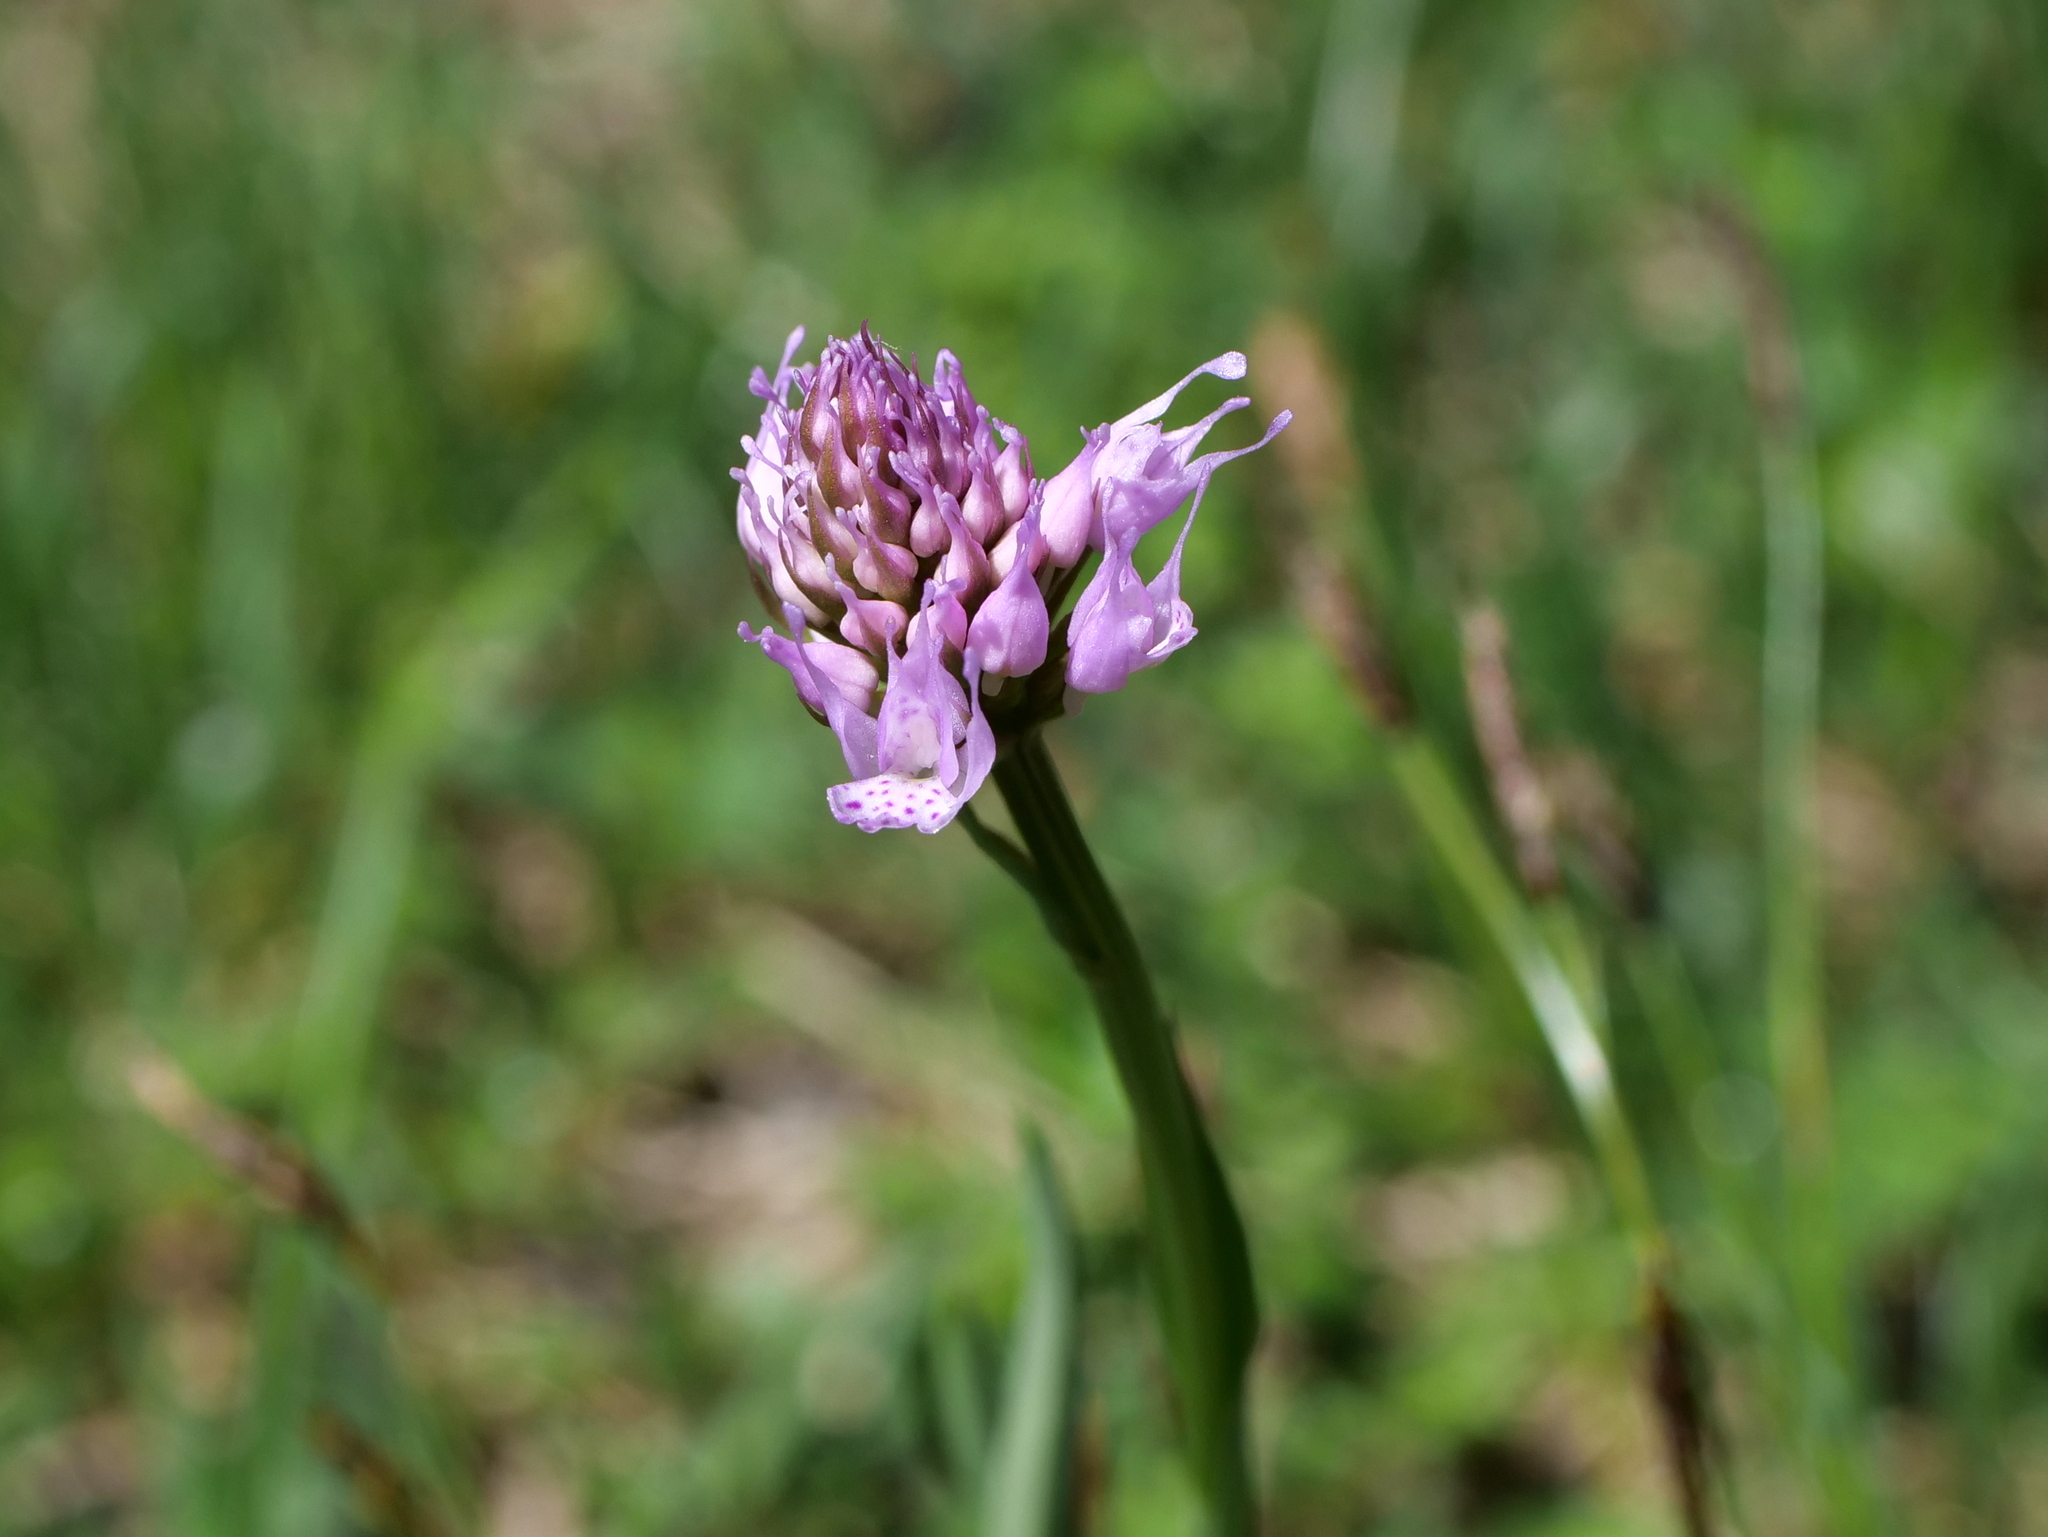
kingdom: Plantae
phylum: Tracheophyta
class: Liliopsida
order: Asparagales
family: Orchidaceae
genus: Traunsteinera
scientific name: Traunsteinera globosa
